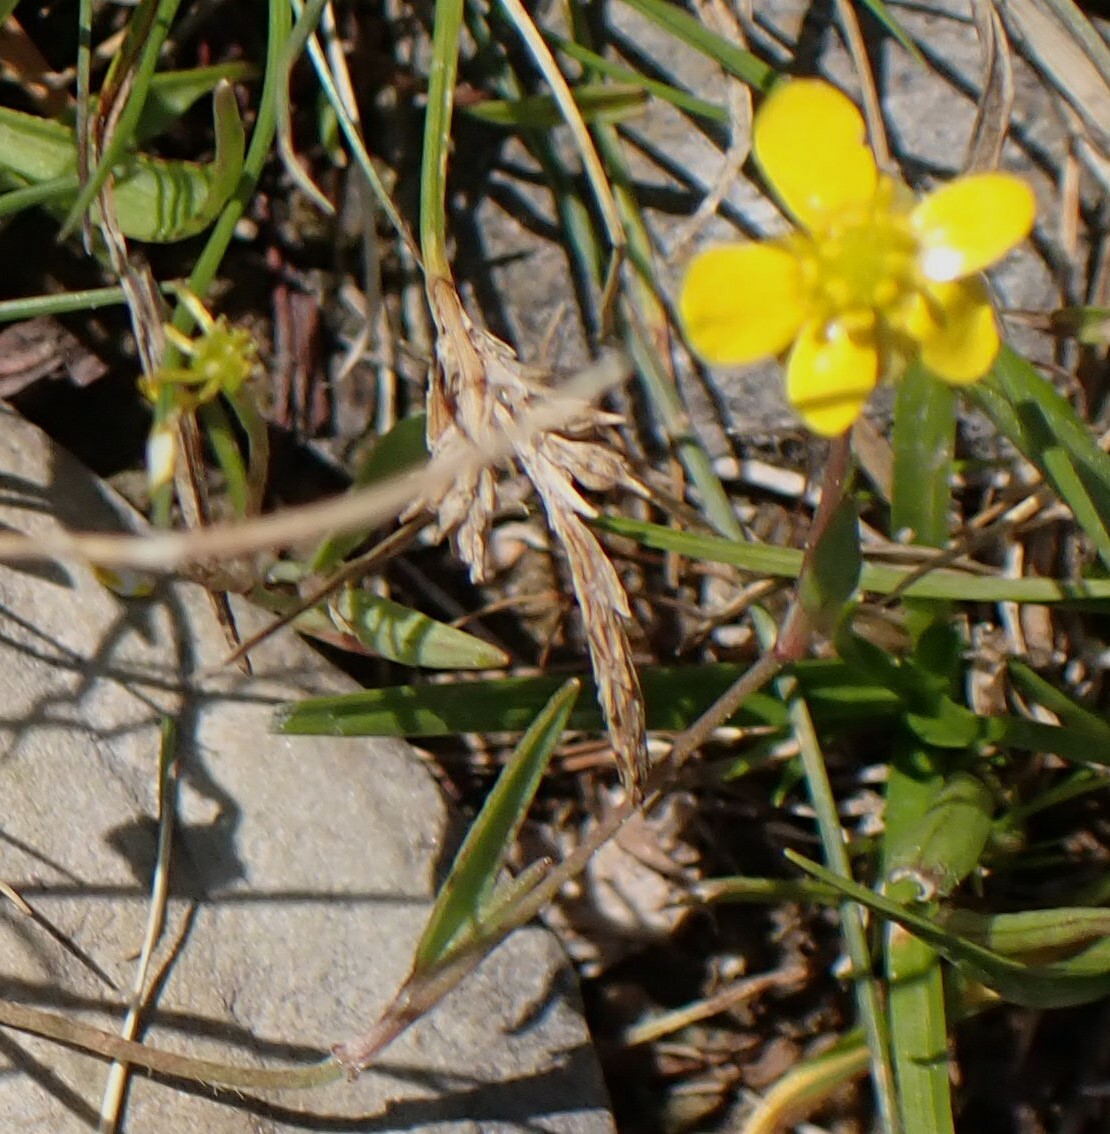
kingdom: Plantae
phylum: Tracheophyta
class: Magnoliopsida
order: Ranunculales
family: Ranunculaceae
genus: Ranunculus
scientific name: Ranunculus flammula
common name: Lesser spearwort
